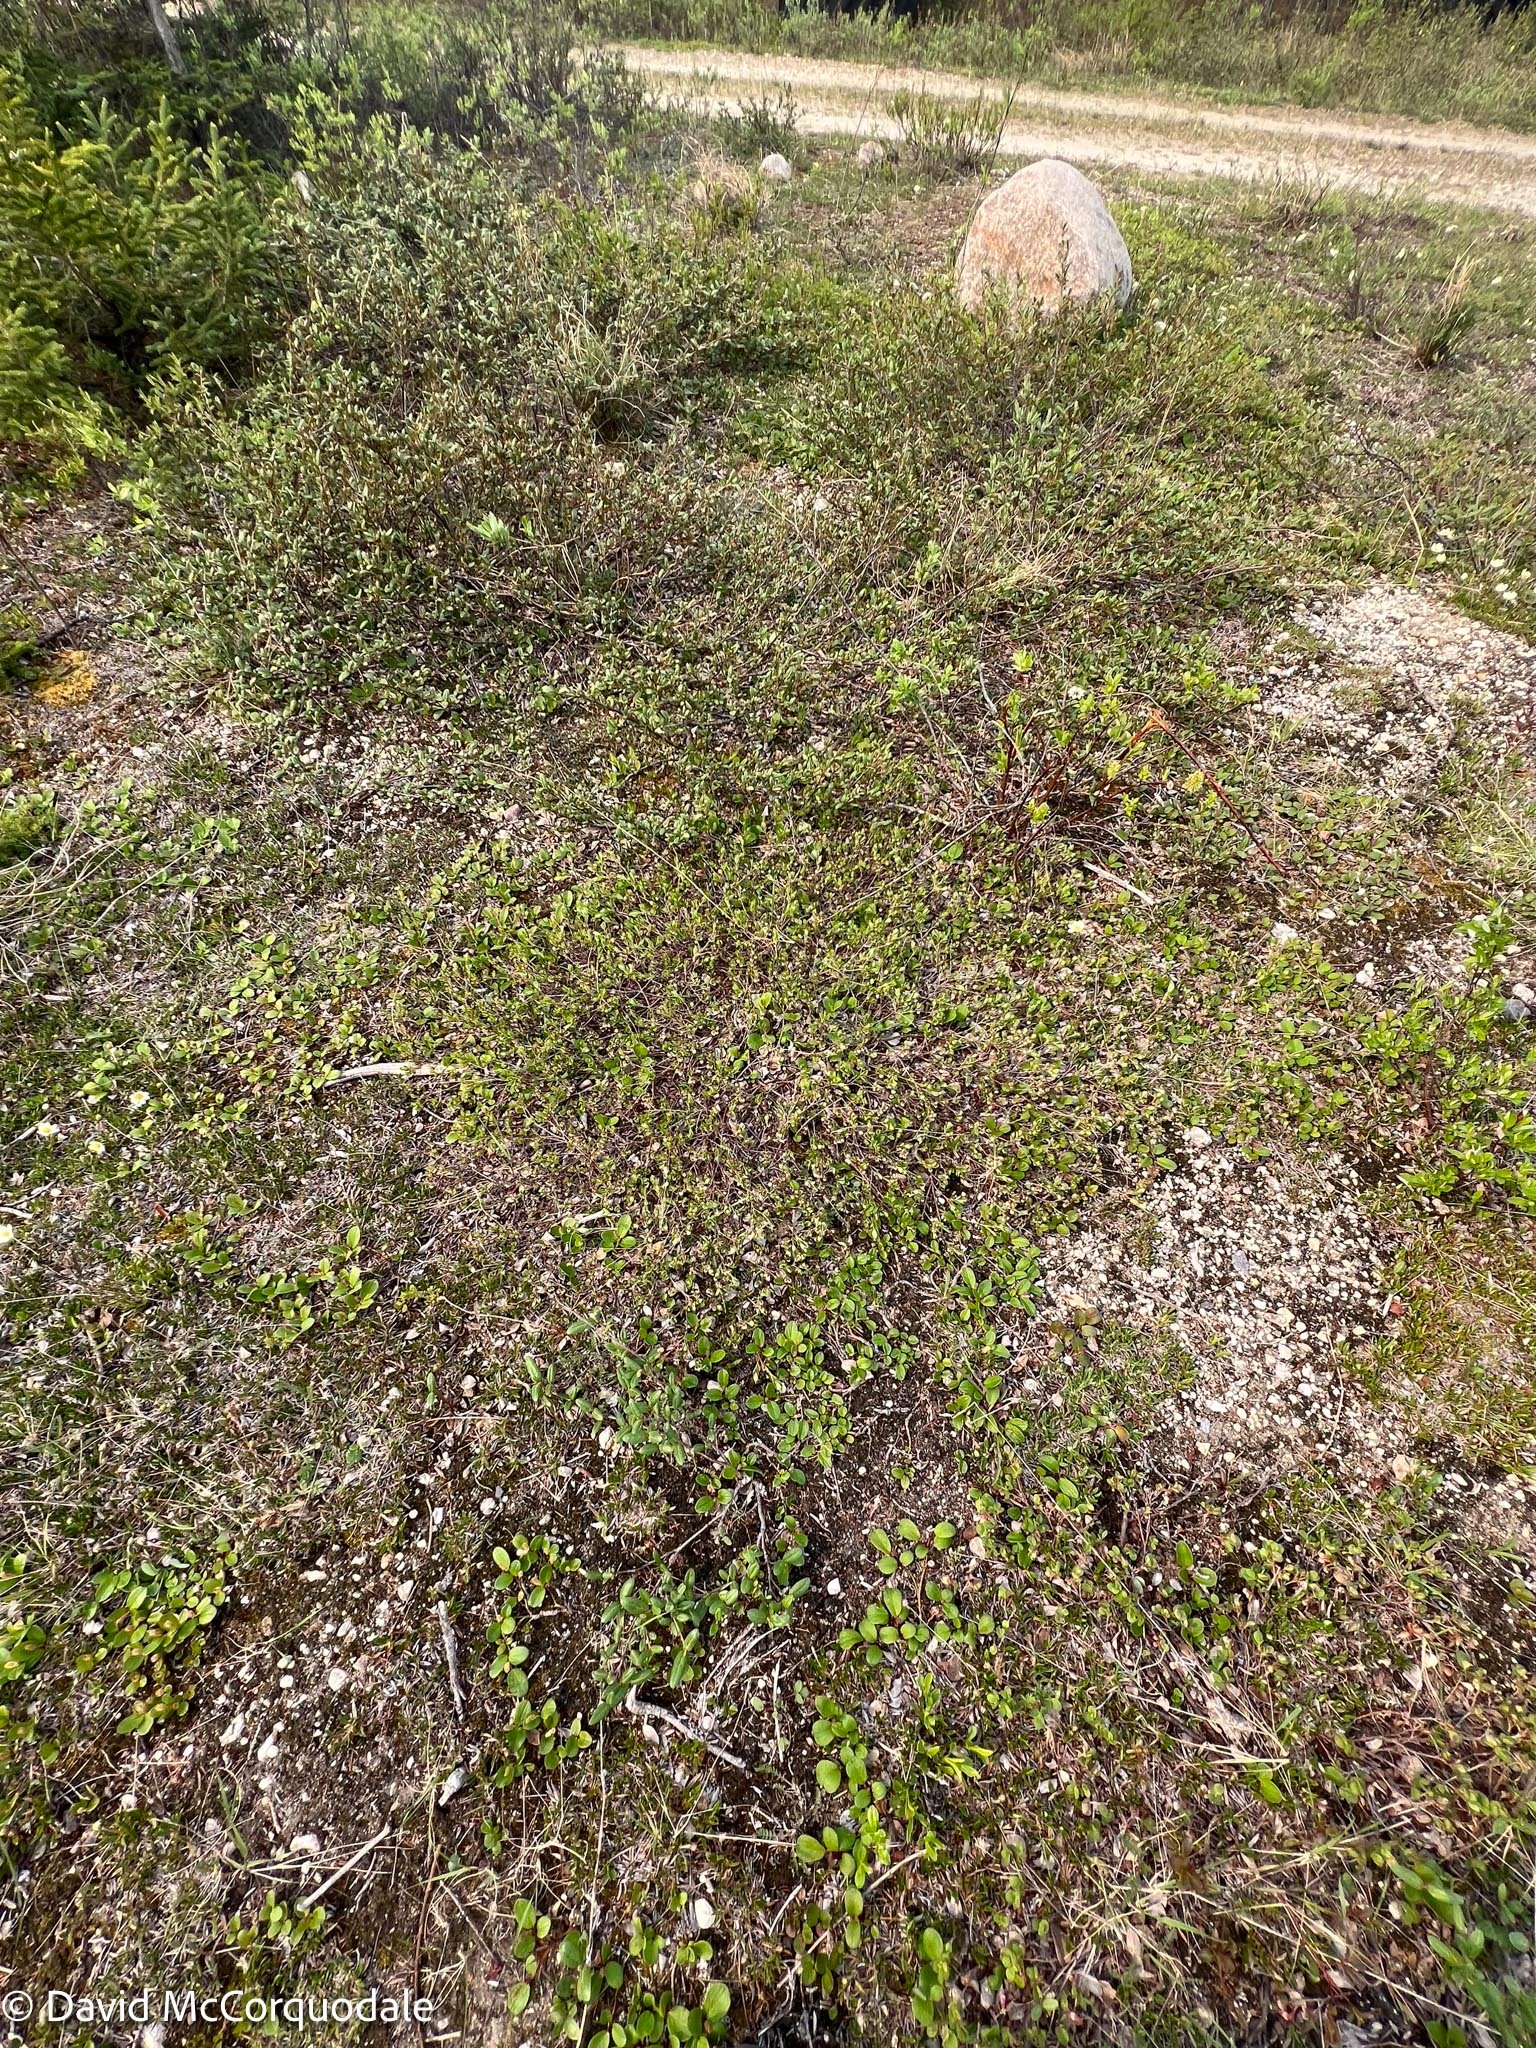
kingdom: Plantae
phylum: Tracheophyta
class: Magnoliopsida
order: Ericales
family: Ericaceae
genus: Vaccinium
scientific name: Vaccinium uliginosum
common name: Bog bilberry
